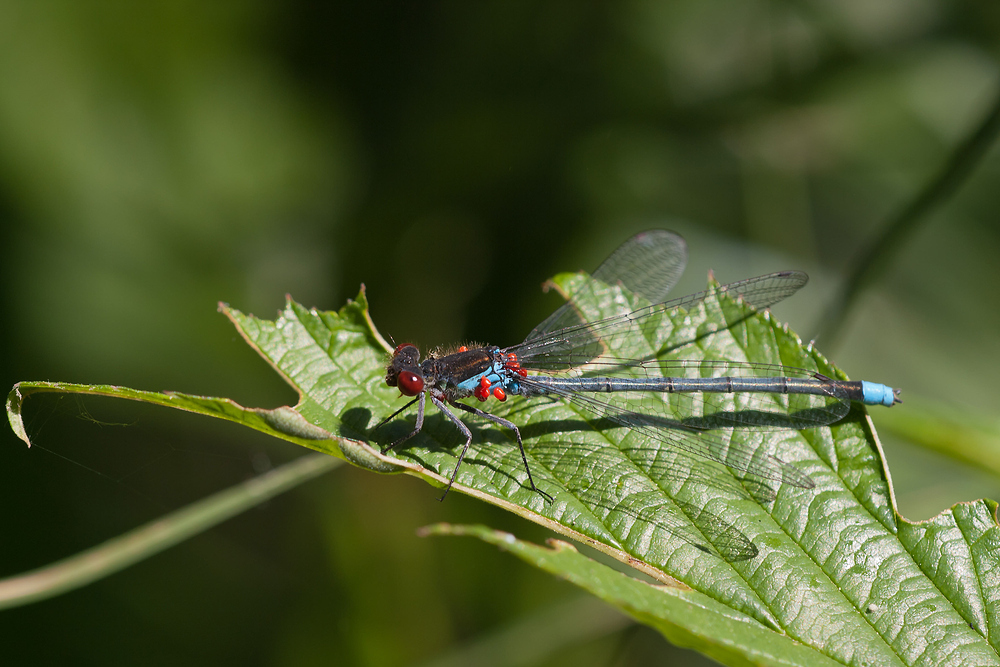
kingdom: Animalia
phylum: Arthropoda
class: Insecta
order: Odonata
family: Coenagrionidae
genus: Erythromma
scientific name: Erythromma najas
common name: Red-eyed damselfly
